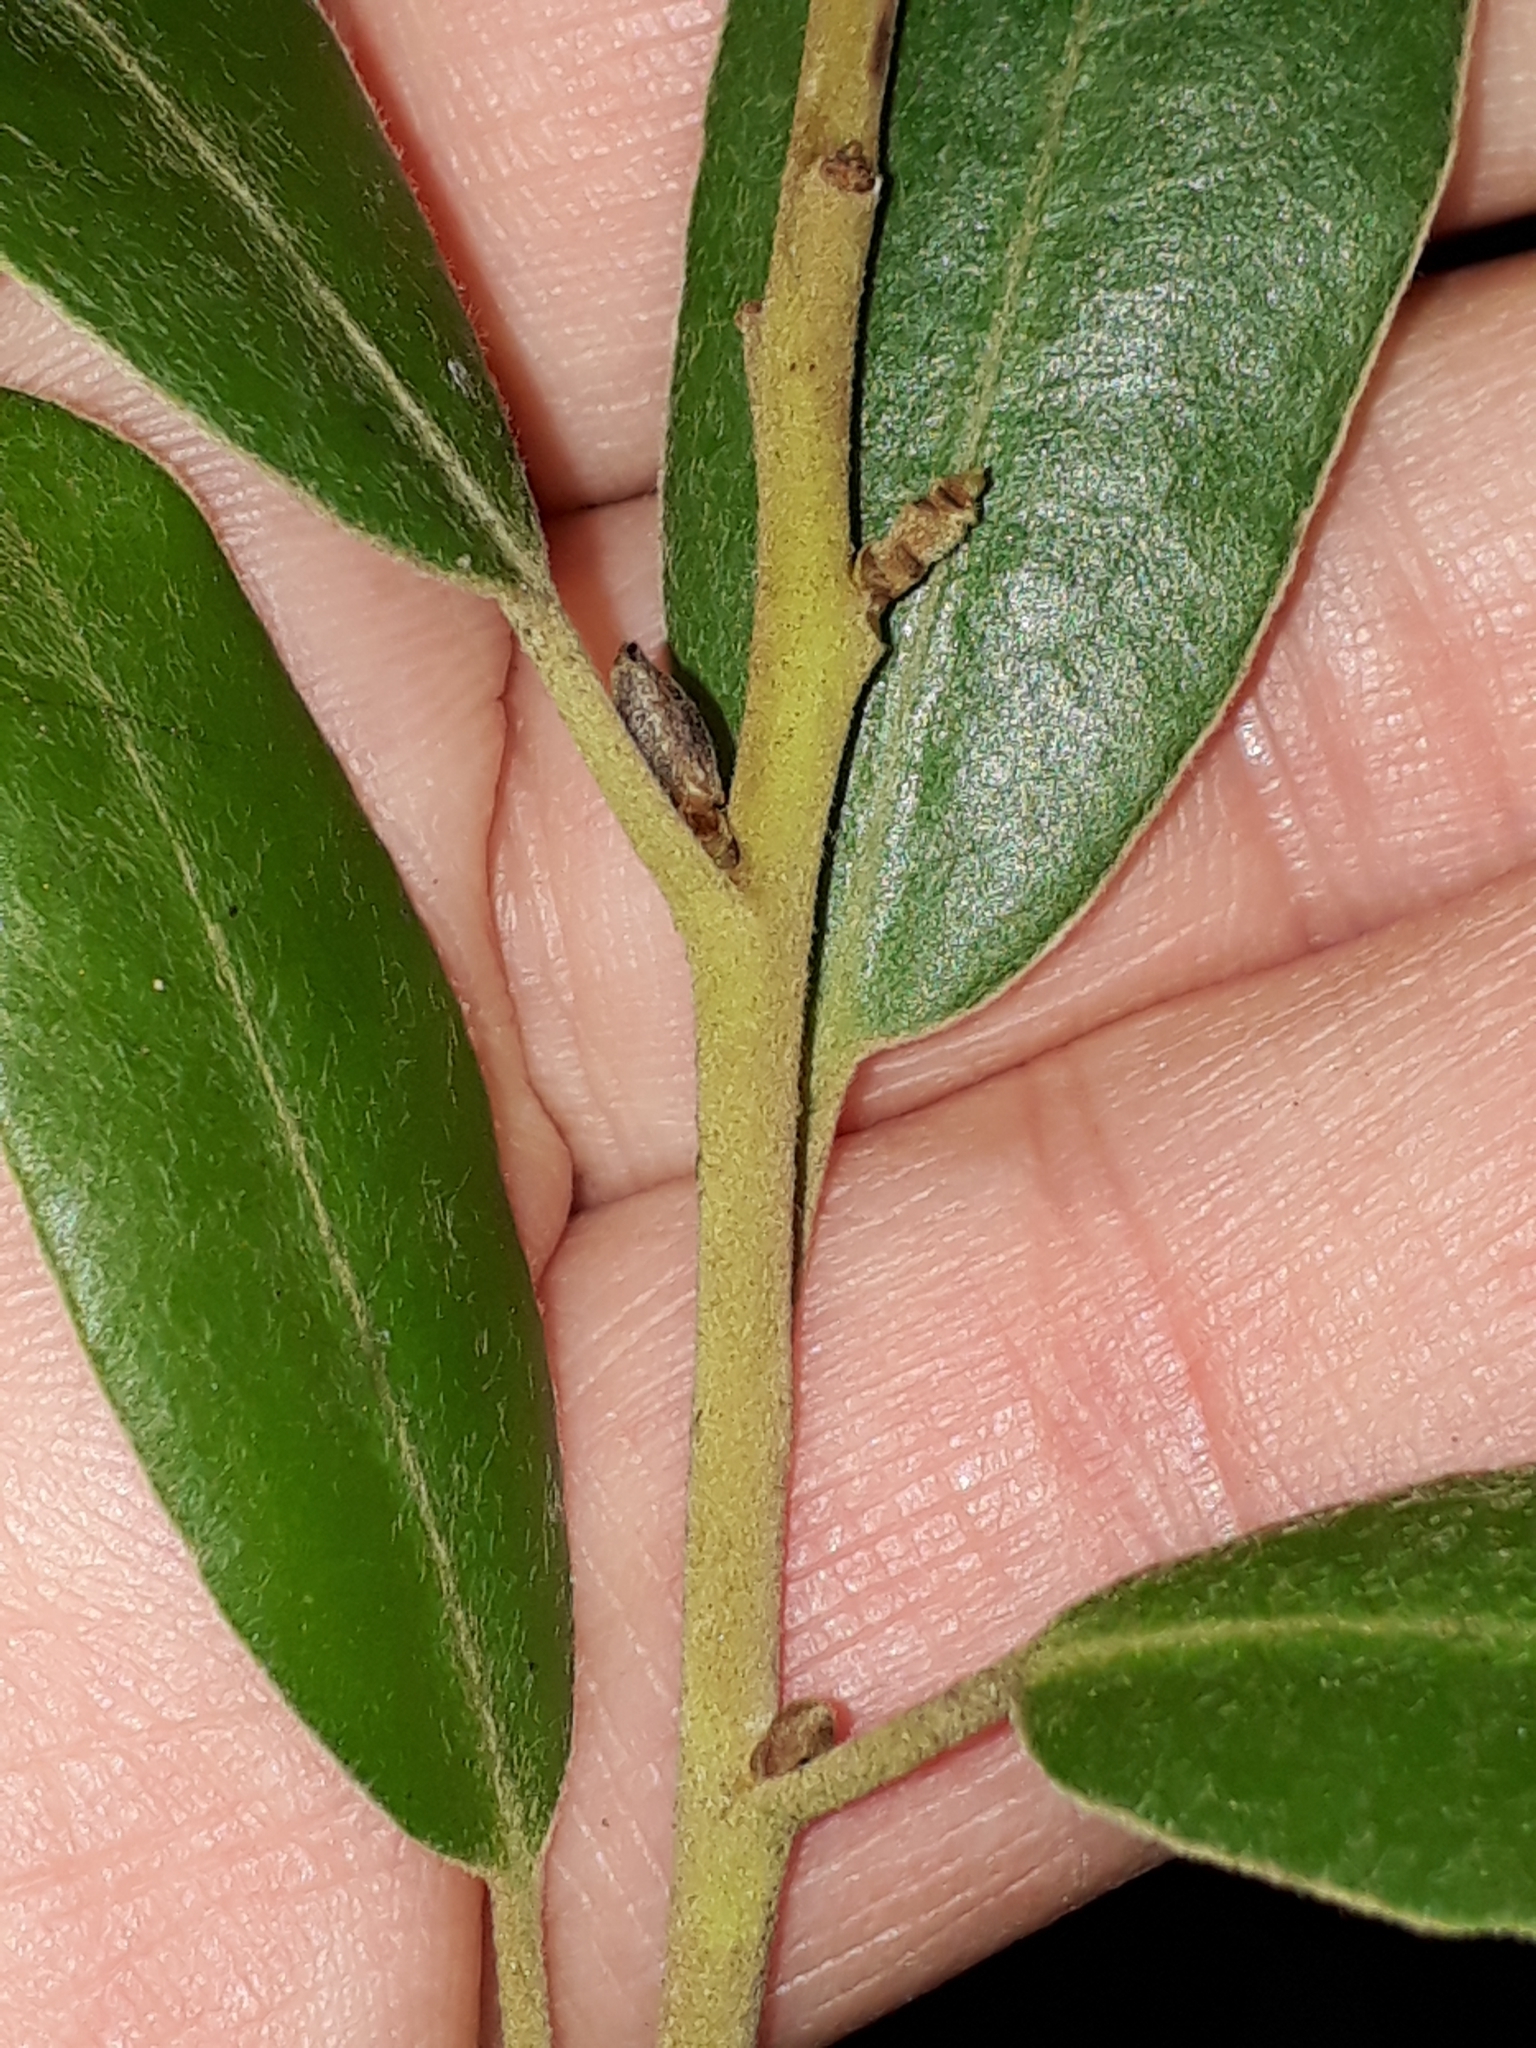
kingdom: Plantae
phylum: Tracheophyta
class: Magnoliopsida
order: Apiales
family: Pittosporaceae
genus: Pittosporum
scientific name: Pittosporum ralphii
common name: Ralph's desertwillow
